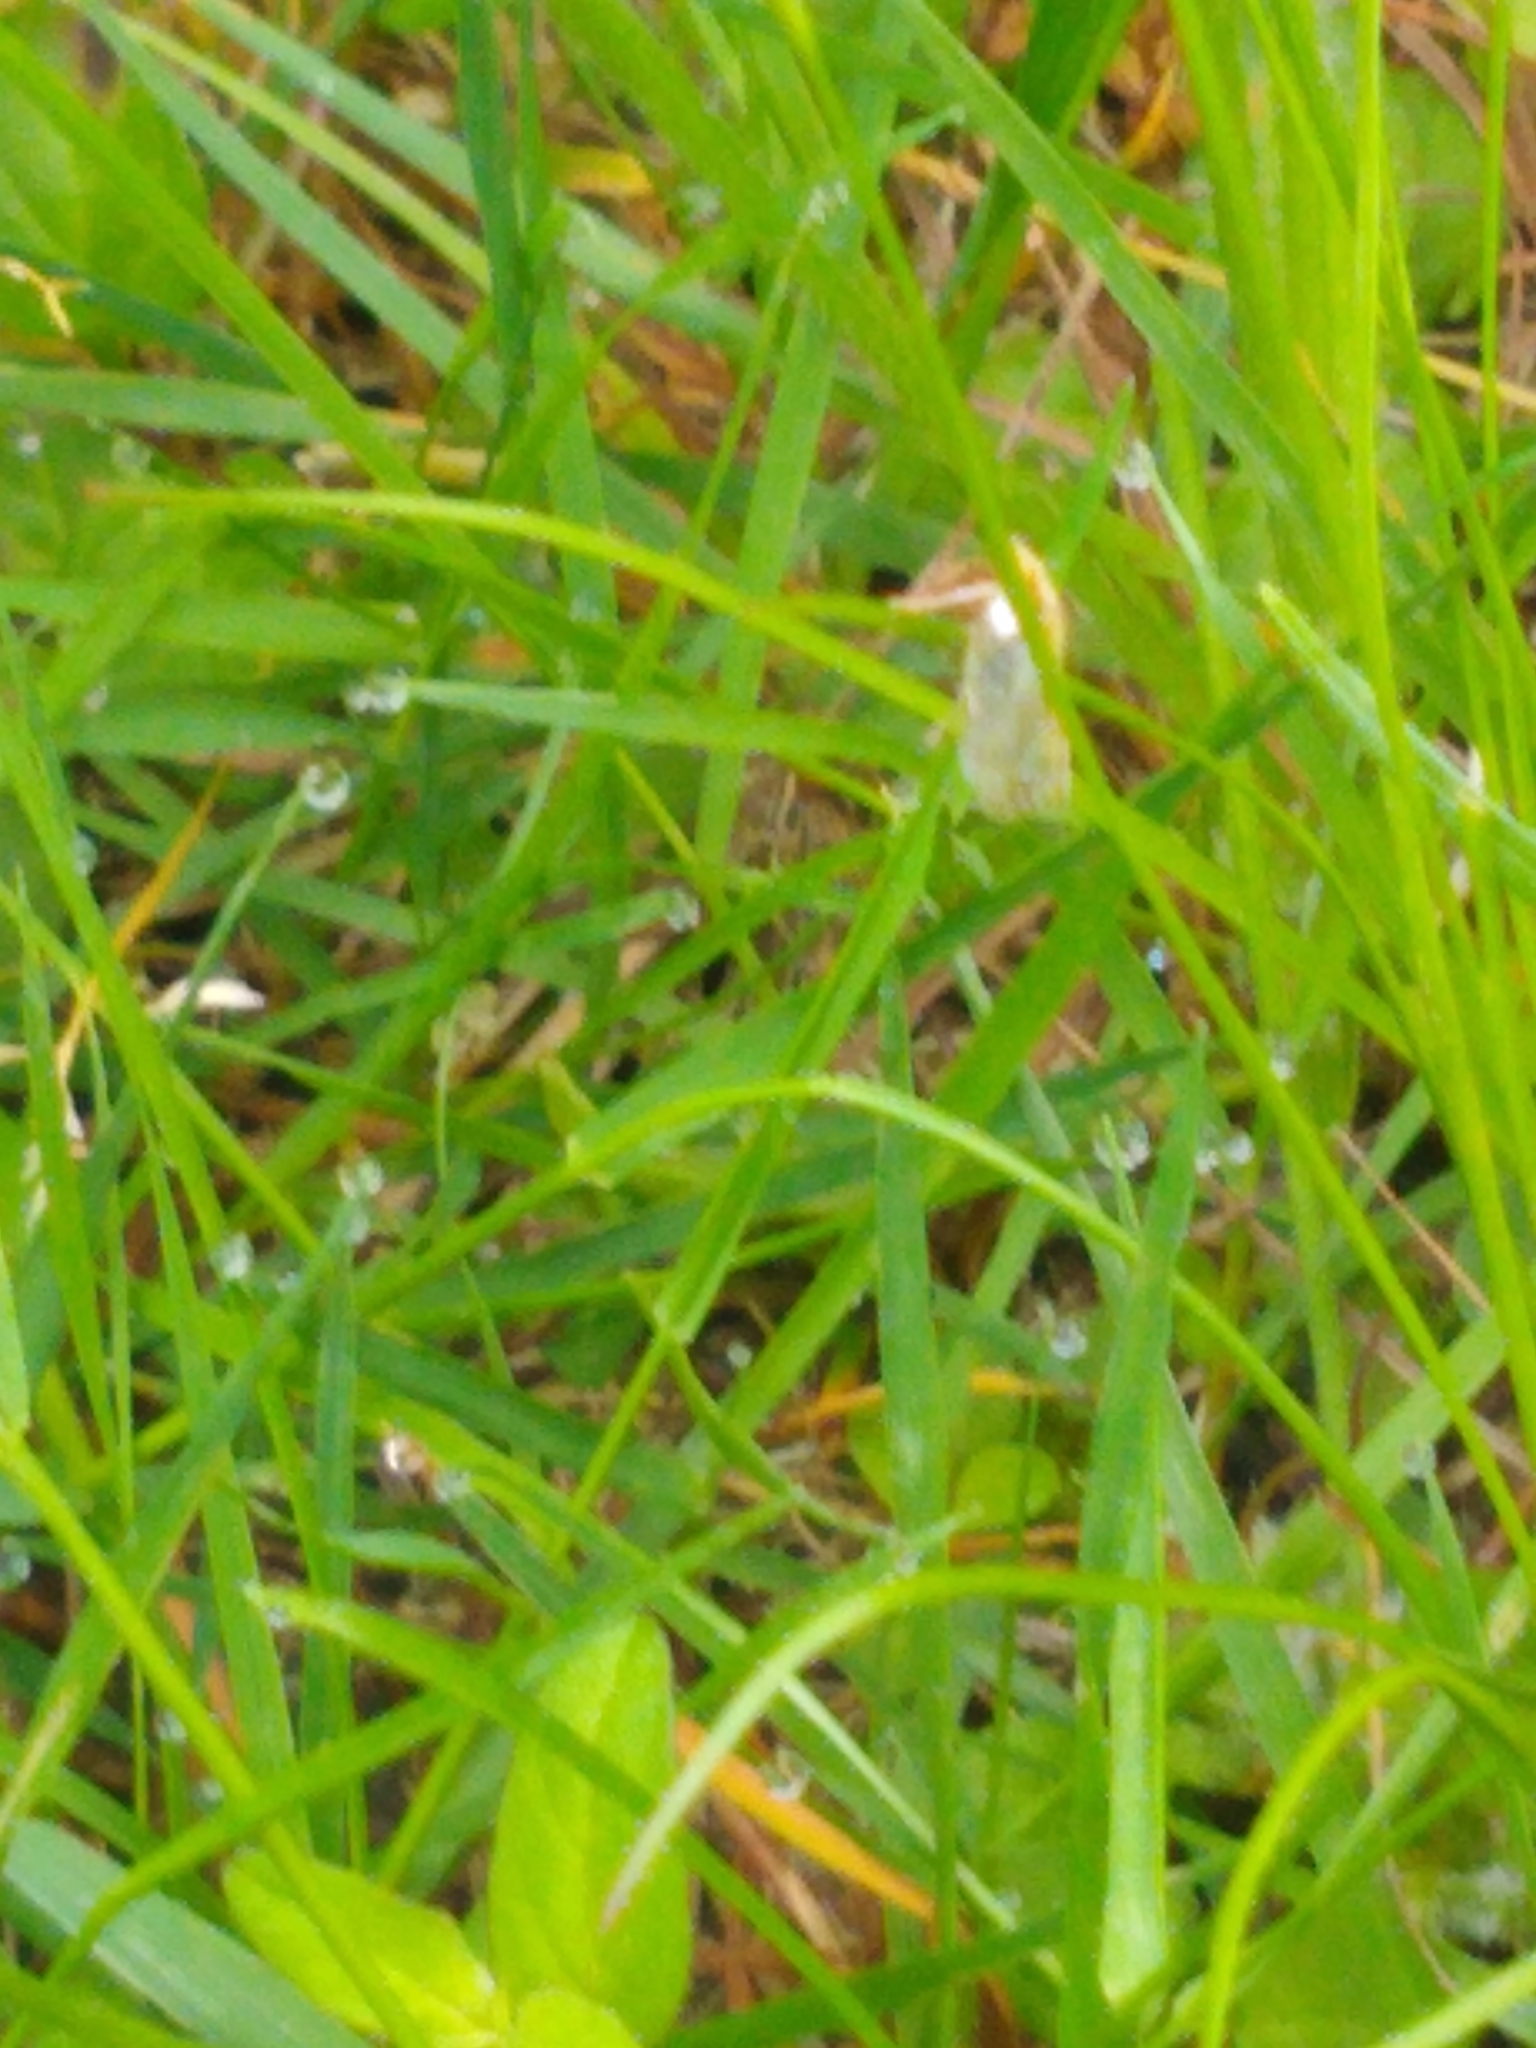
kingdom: Animalia
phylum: Arthropoda
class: Insecta
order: Lepidoptera
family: Crambidae
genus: Crambus
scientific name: Crambus
